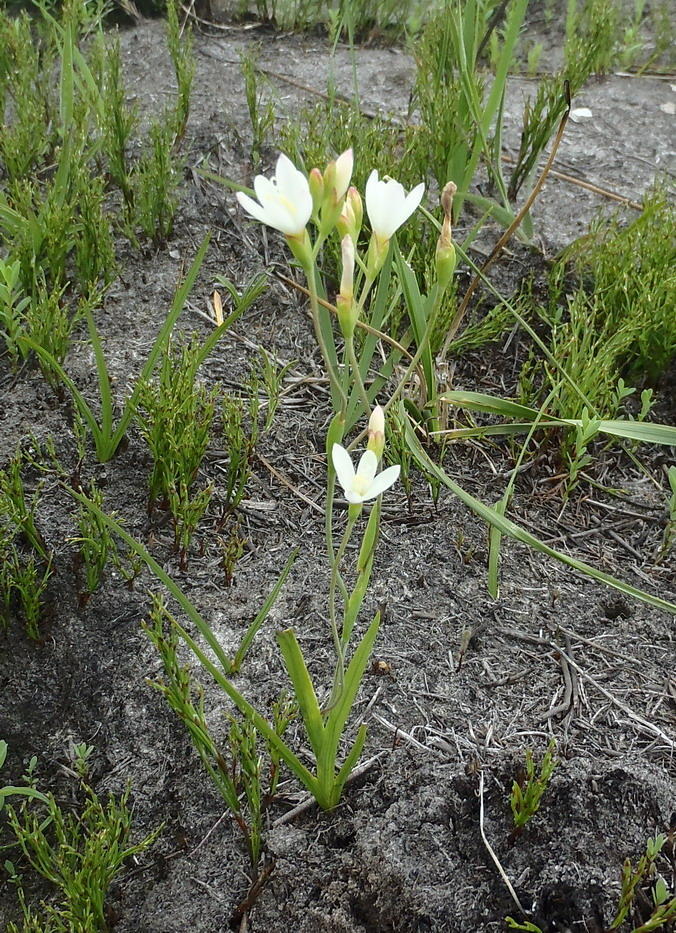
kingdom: Plantae
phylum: Tracheophyta
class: Liliopsida
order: Asparagales
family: Iridaceae
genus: Geissorhiza
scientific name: Geissorhiza inconspicua
